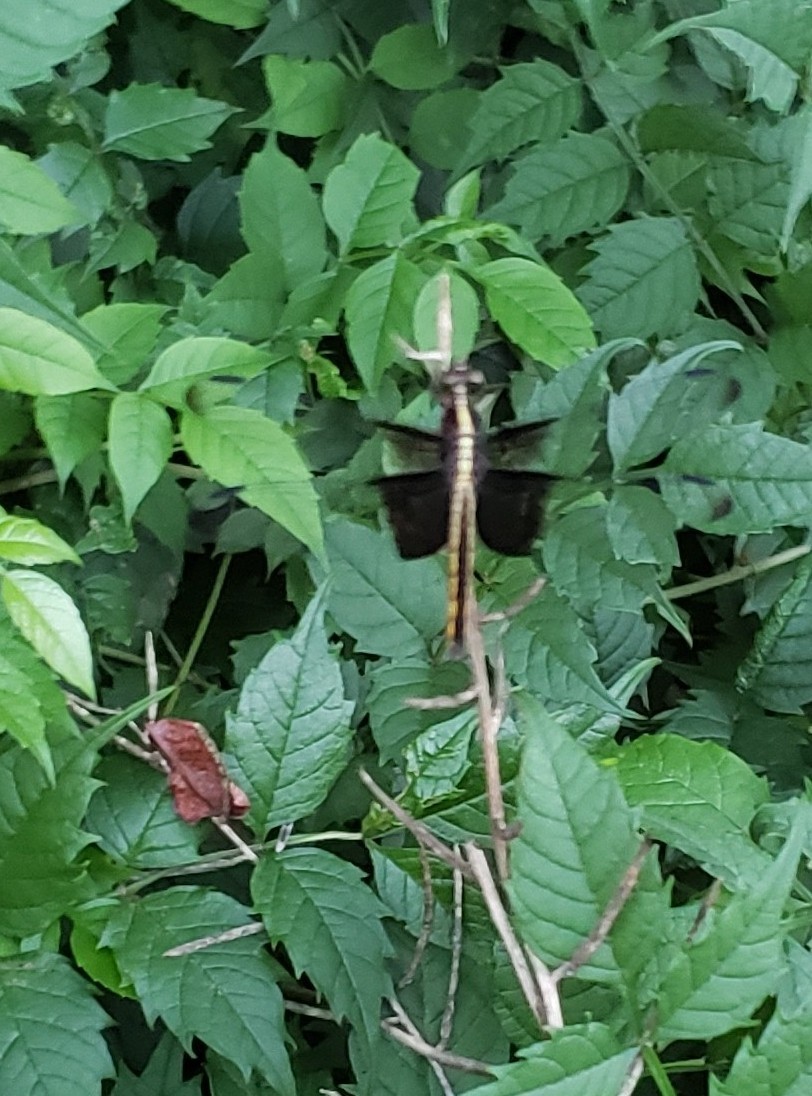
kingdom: Animalia
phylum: Arthropoda
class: Insecta
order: Odonata
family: Libellulidae
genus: Libellula
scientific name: Libellula luctuosa
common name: Widow skimmer
